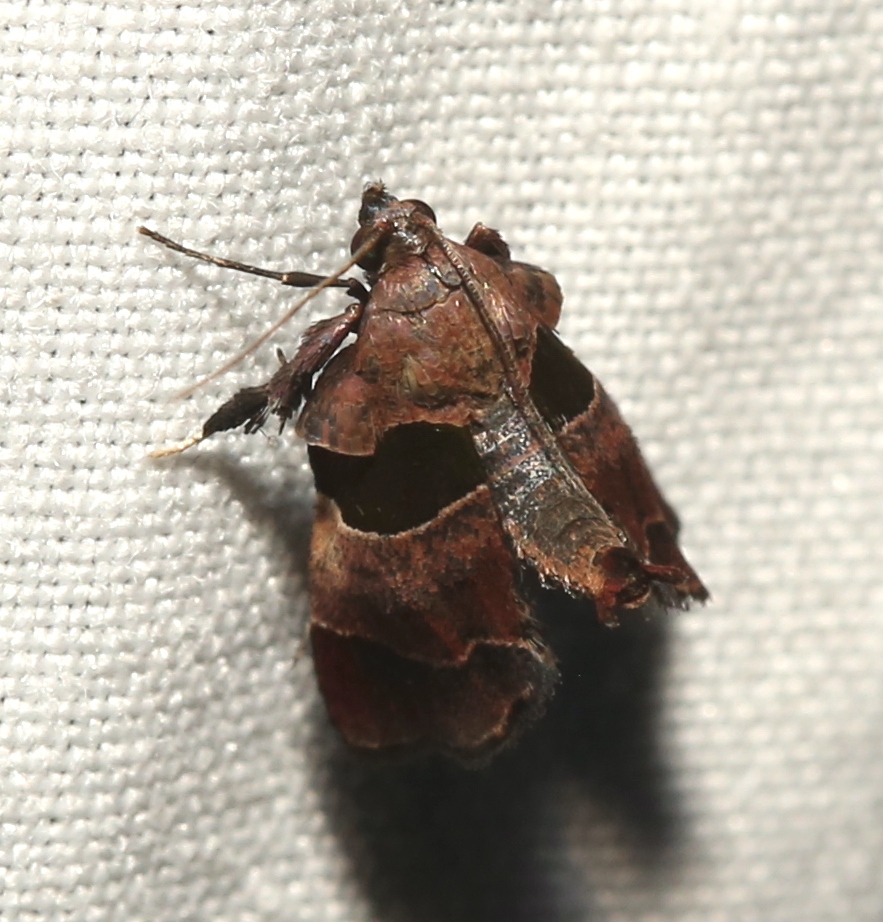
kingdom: Animalia
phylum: Arthropoda
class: Insecta
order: Lepidoptera
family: Pyralidae
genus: Tosale
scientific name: Tosale oviplagalis
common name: Dimorphic tosale moth
